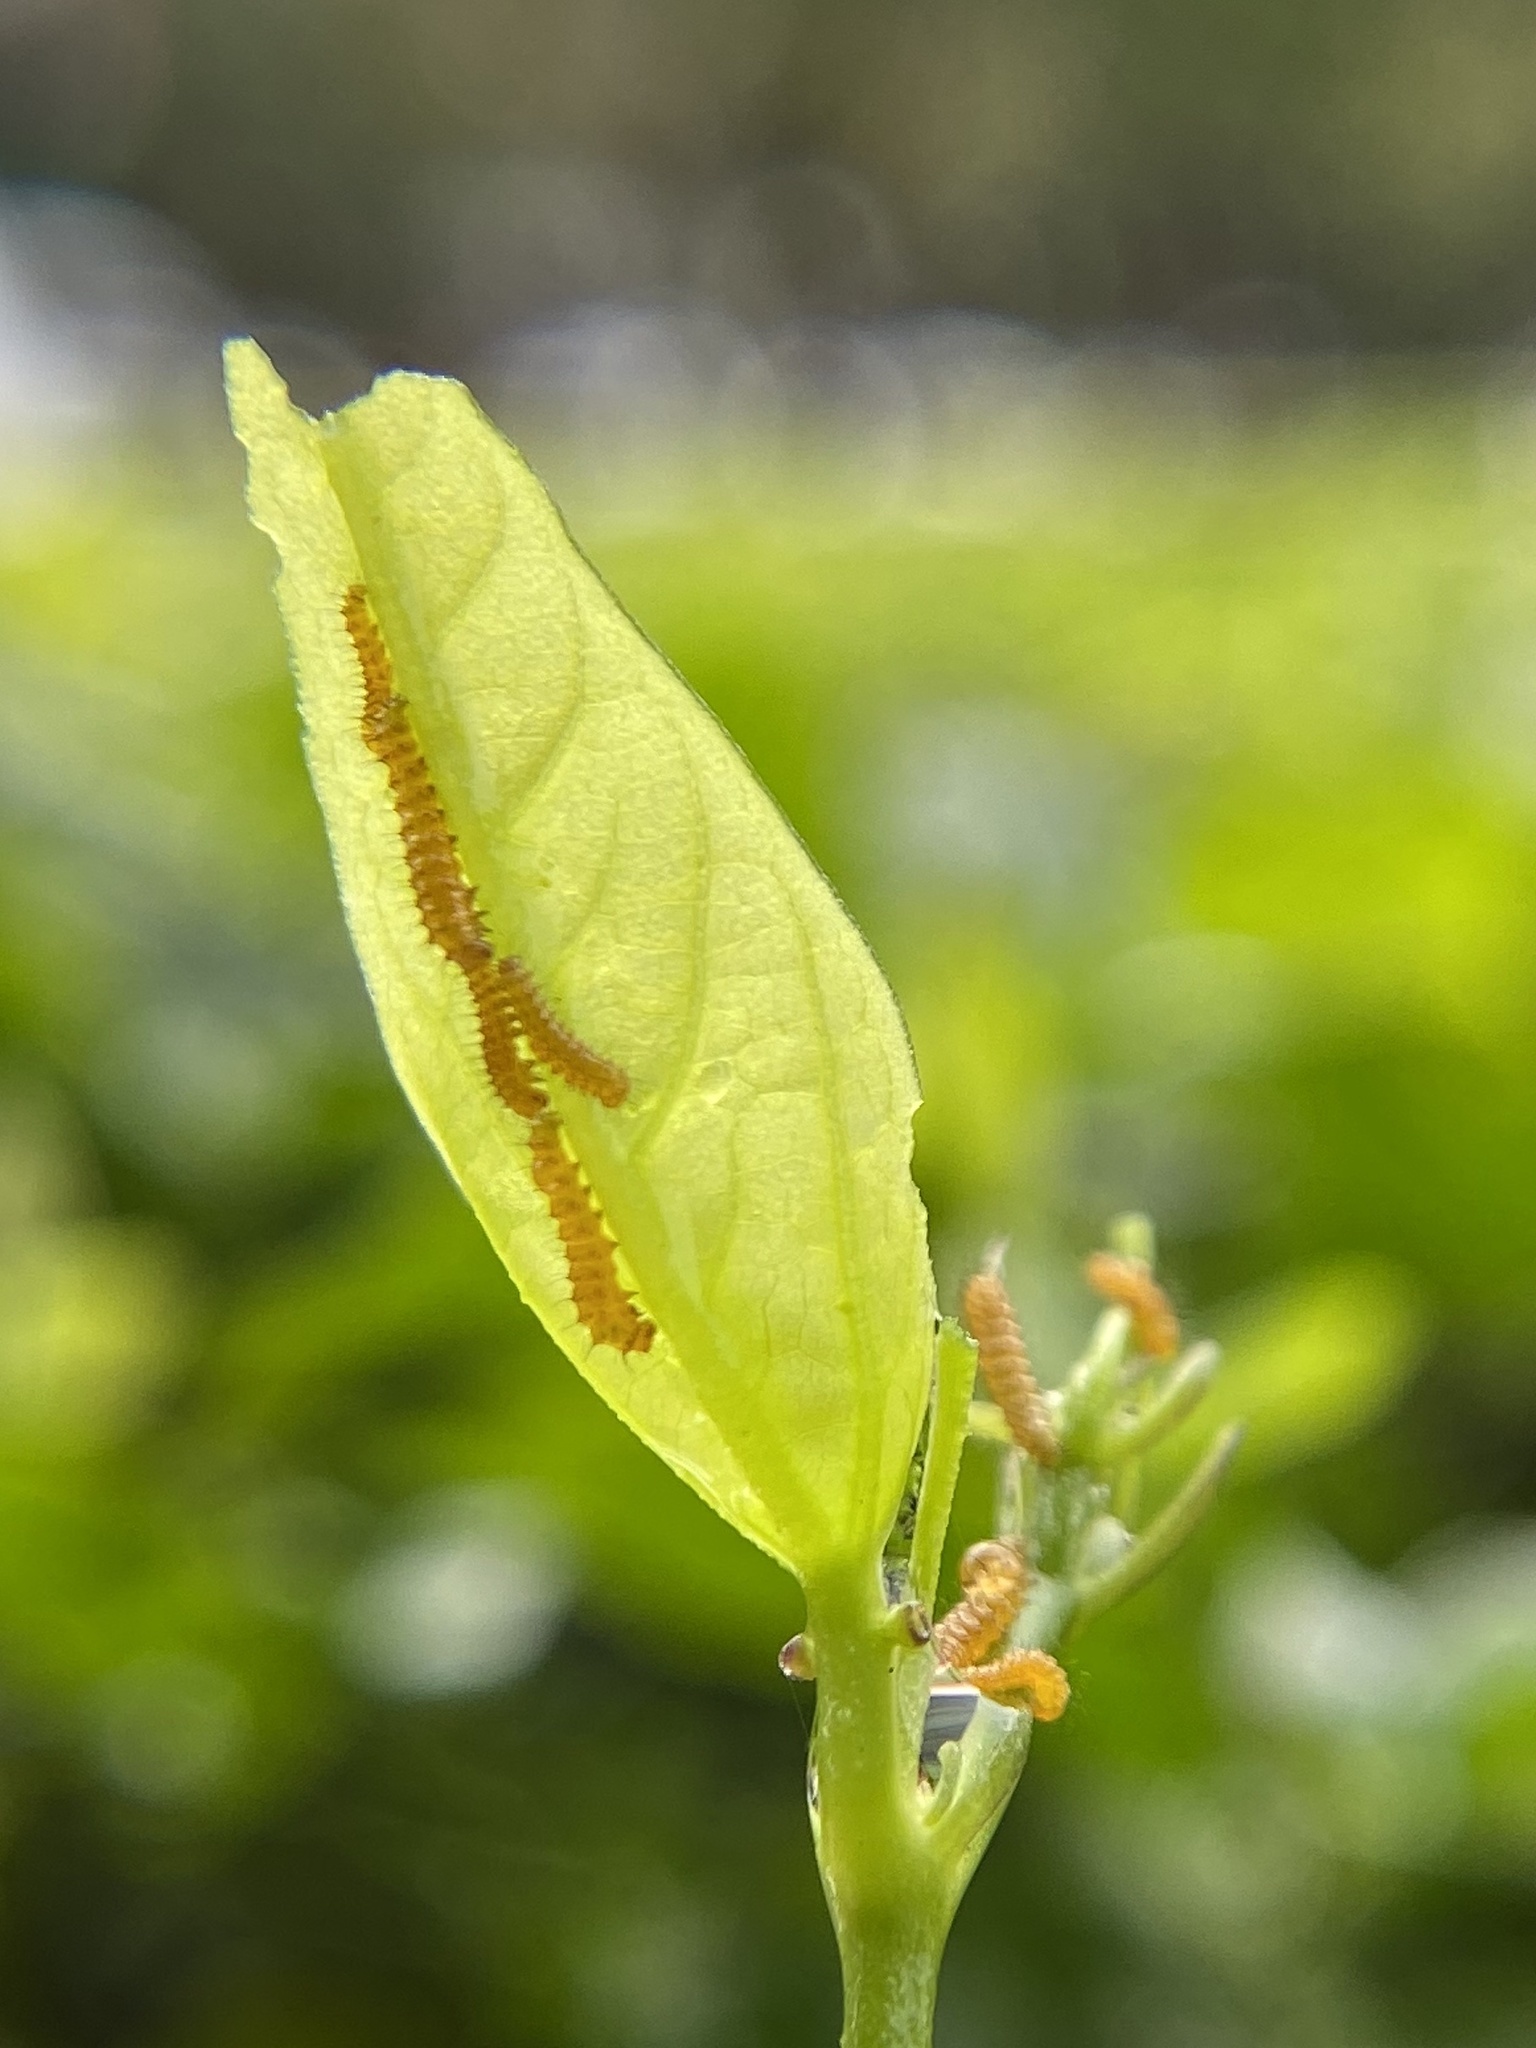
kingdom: Animalia
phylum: Arthropoda
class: Insecta
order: Lepidoptera
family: Nymphalidae
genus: Heliconius
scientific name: Heliconius charithonia
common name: Zebra long wing
